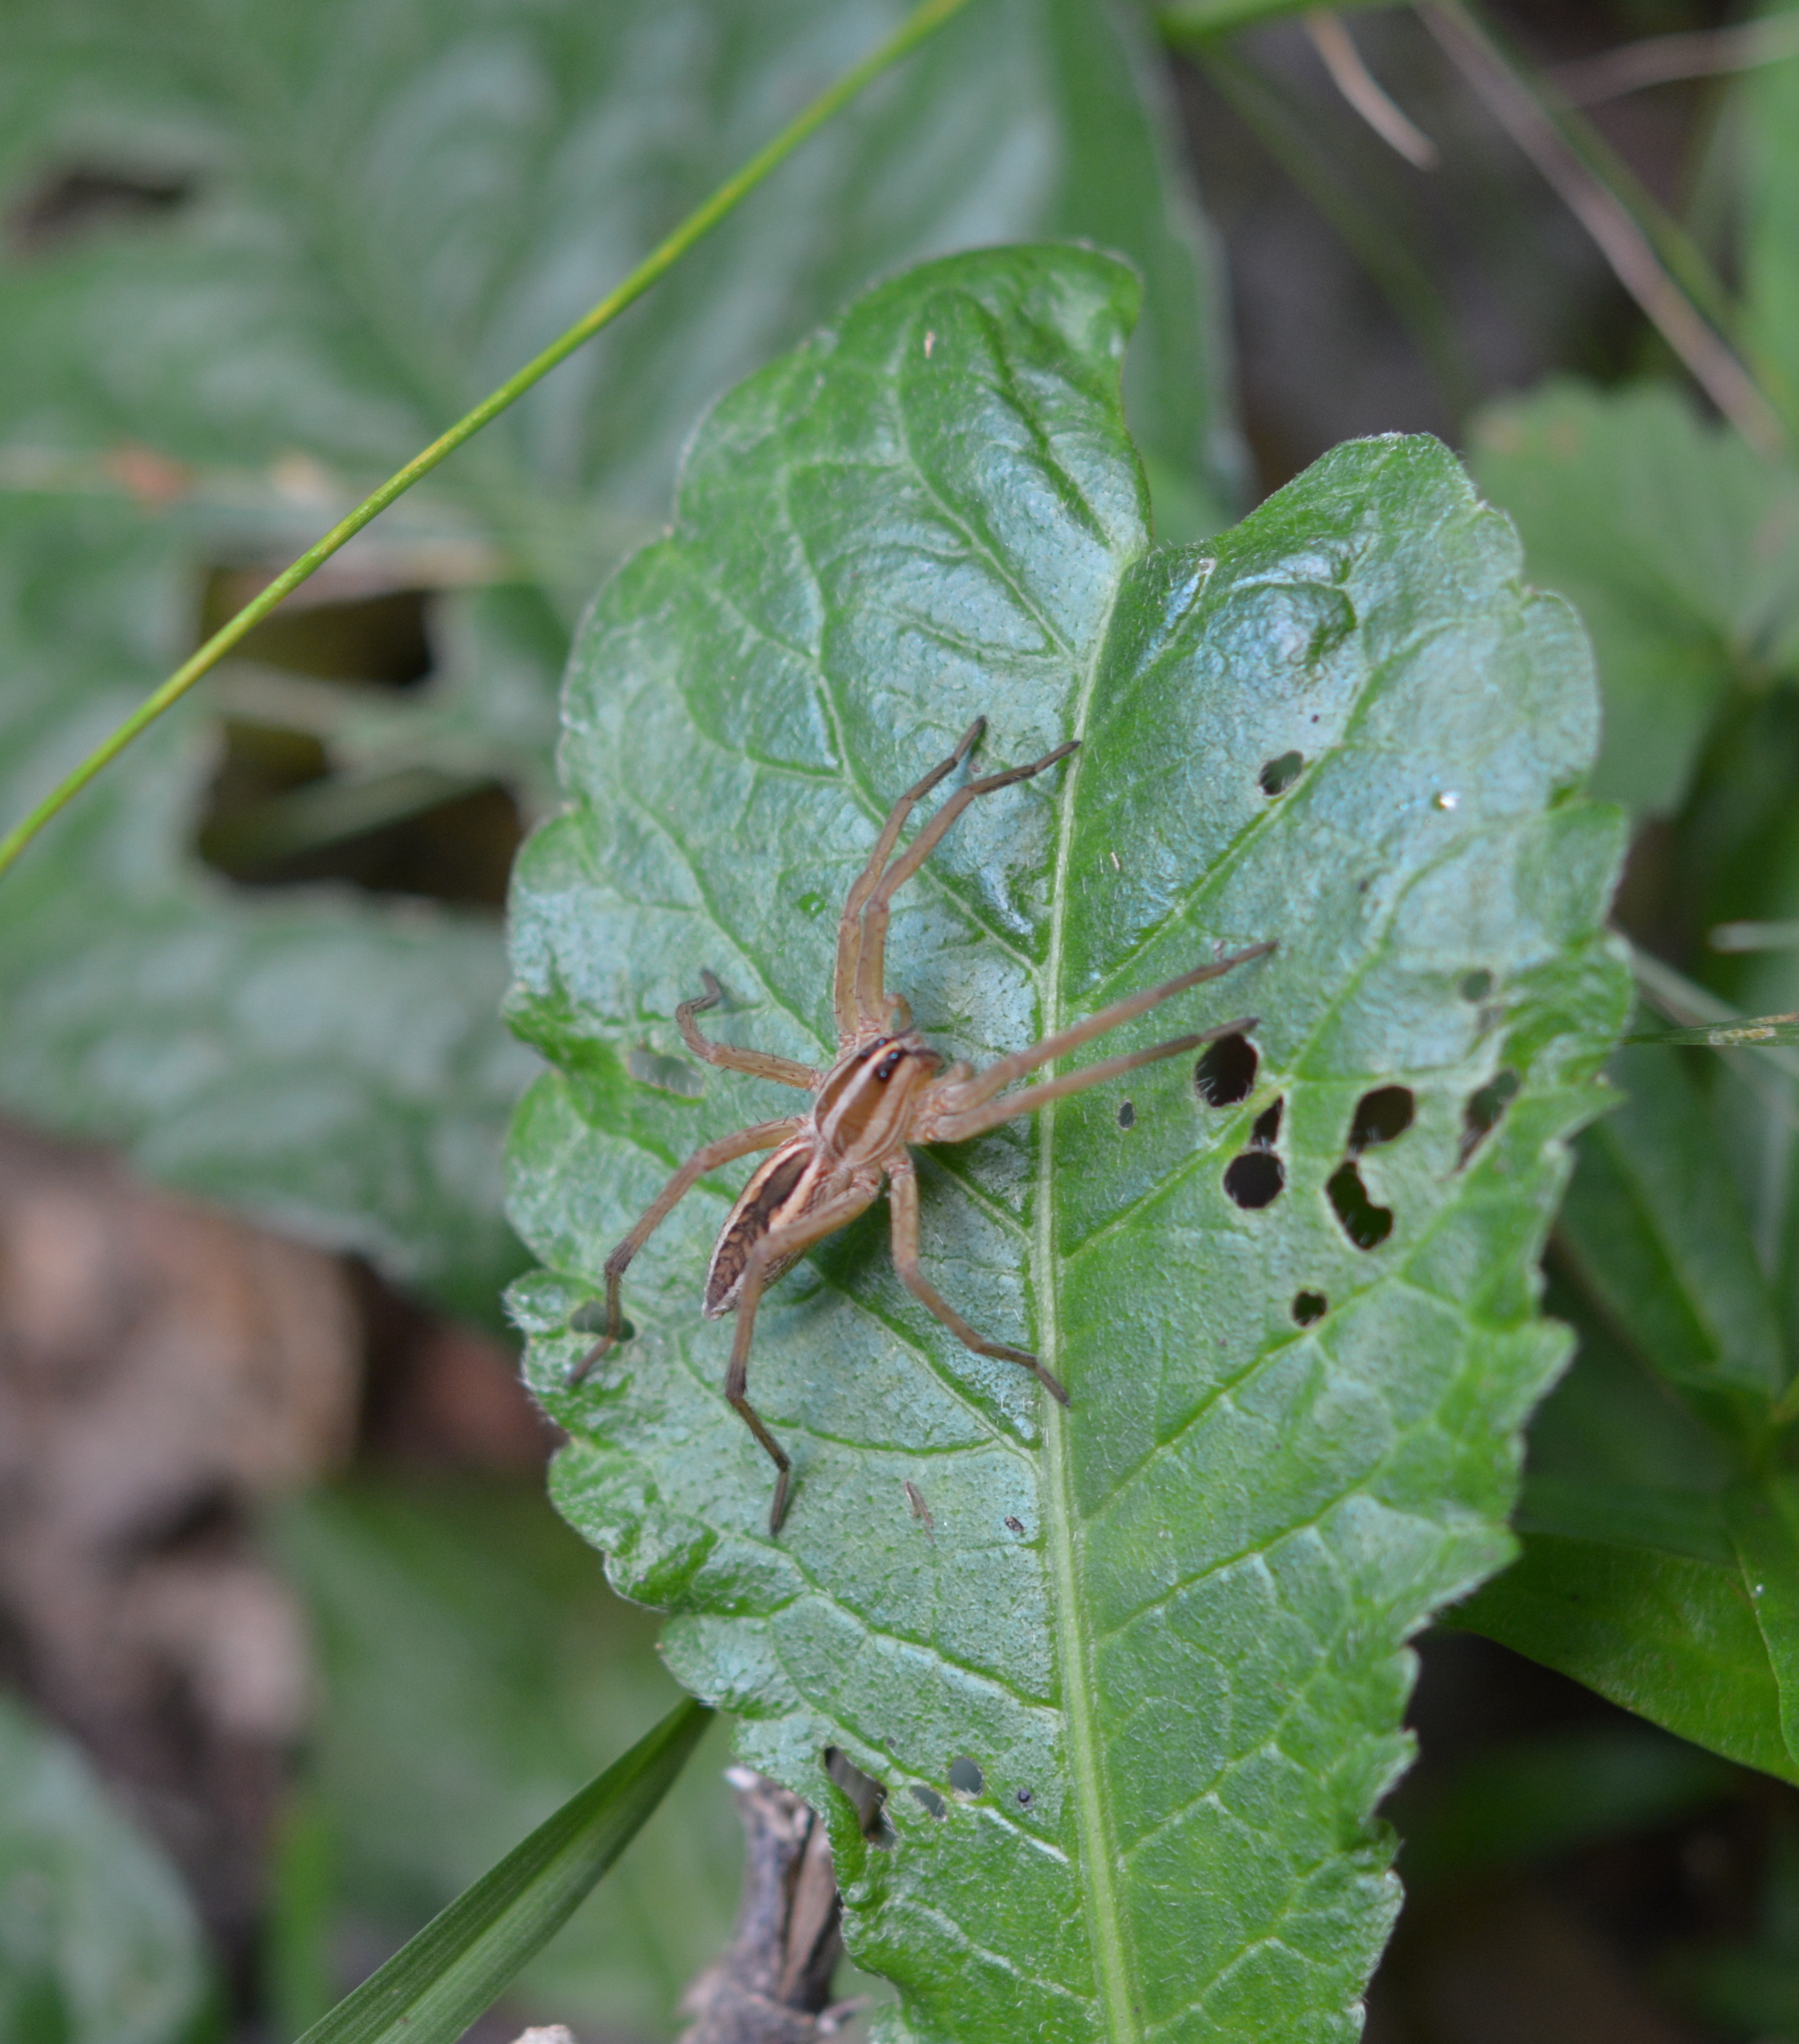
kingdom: Animalia
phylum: Arthropoda
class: Arachnida
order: Araneae
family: Lycosidae
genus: Rabidosa
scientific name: Rabidosa rabida
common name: Rabid wolf spider
